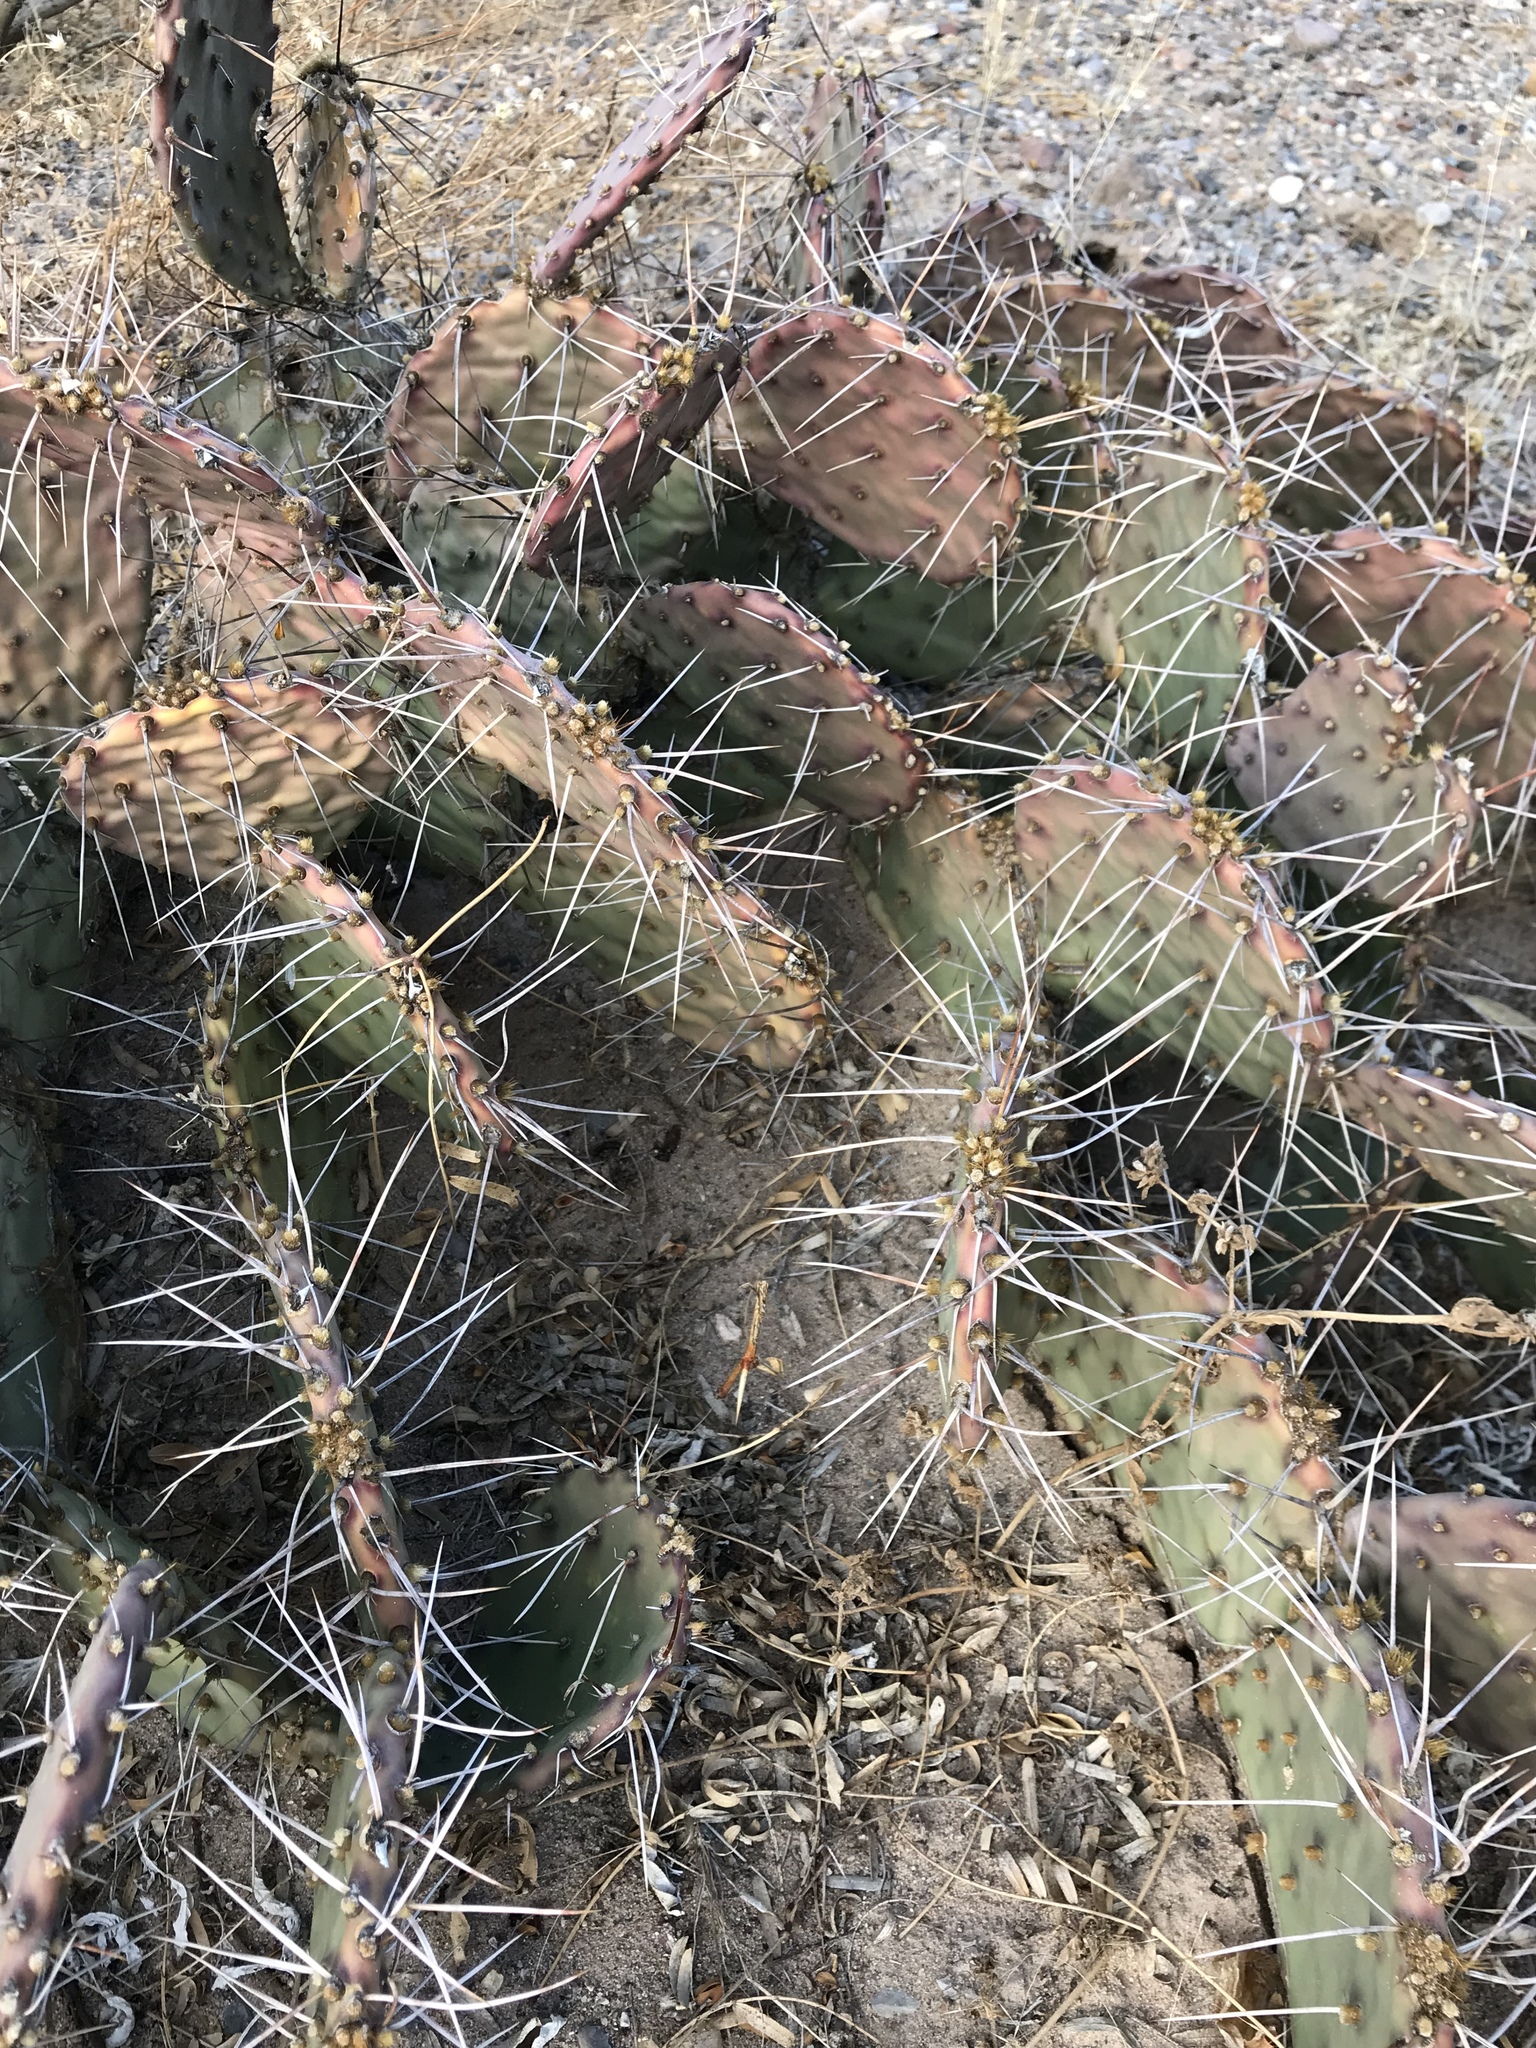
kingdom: Plantae
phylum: Tracheophyta
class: Magnoliopsida
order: Caryophyllales
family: Cactaceae
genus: Opuntia
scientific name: Opuntia phaeacantha
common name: New mexico prickly-pear
